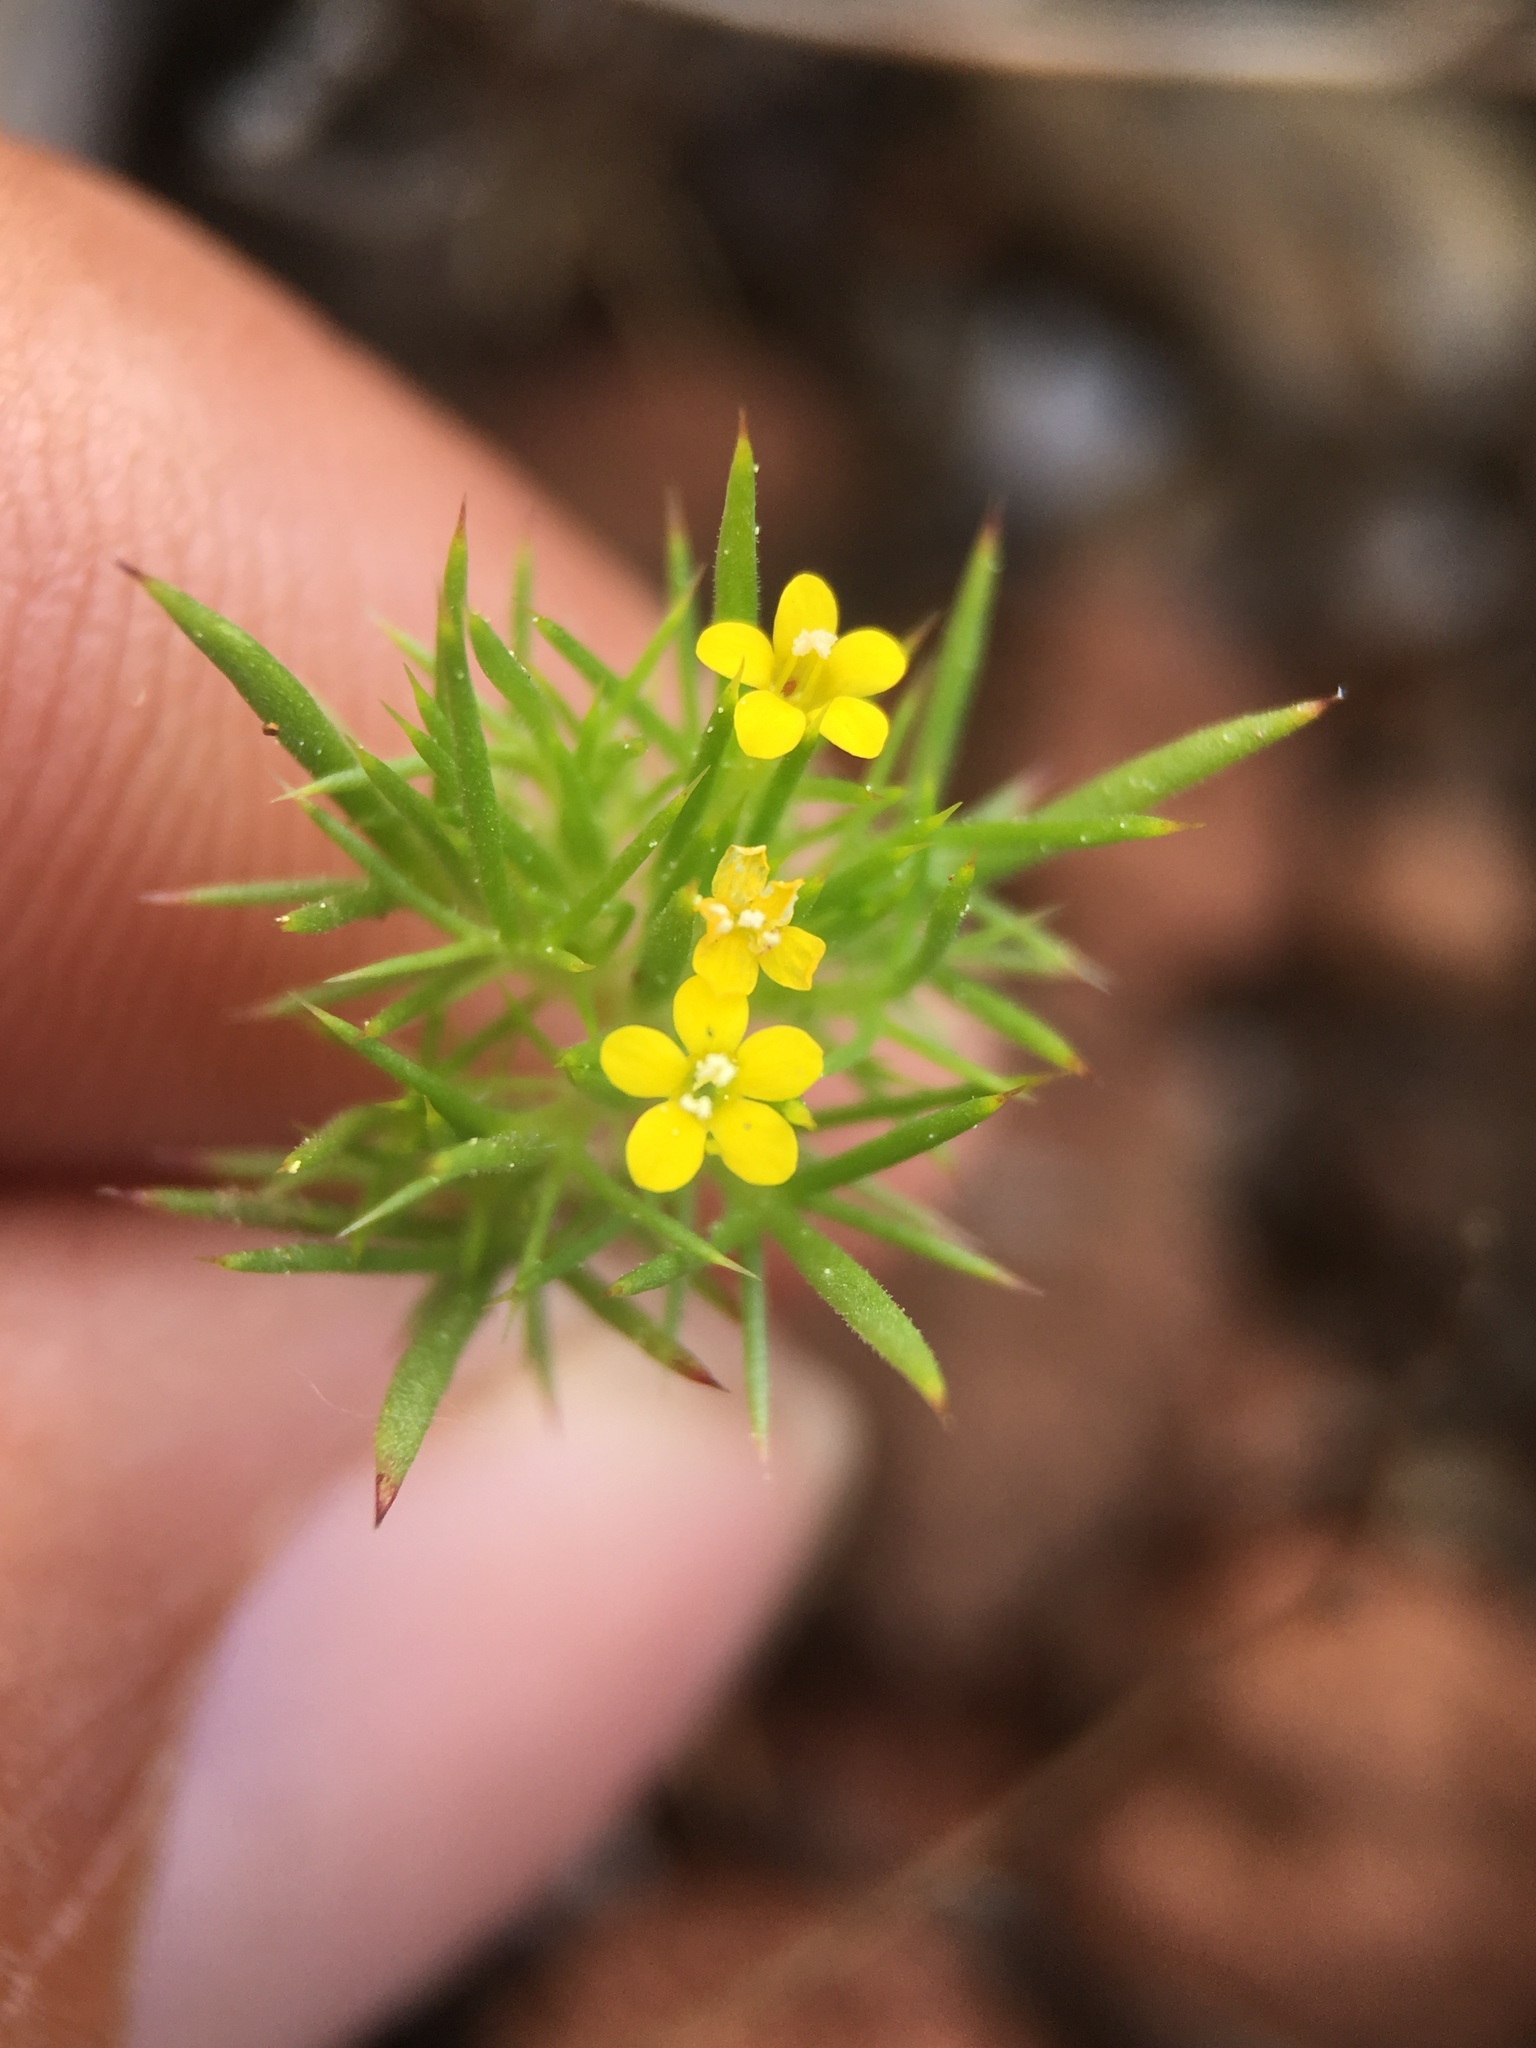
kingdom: Plantae
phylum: Tracheophyta
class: Magnoliopsida
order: Ericales
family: Polemoniaceae
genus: Navarretia
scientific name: Navarretia breweri
